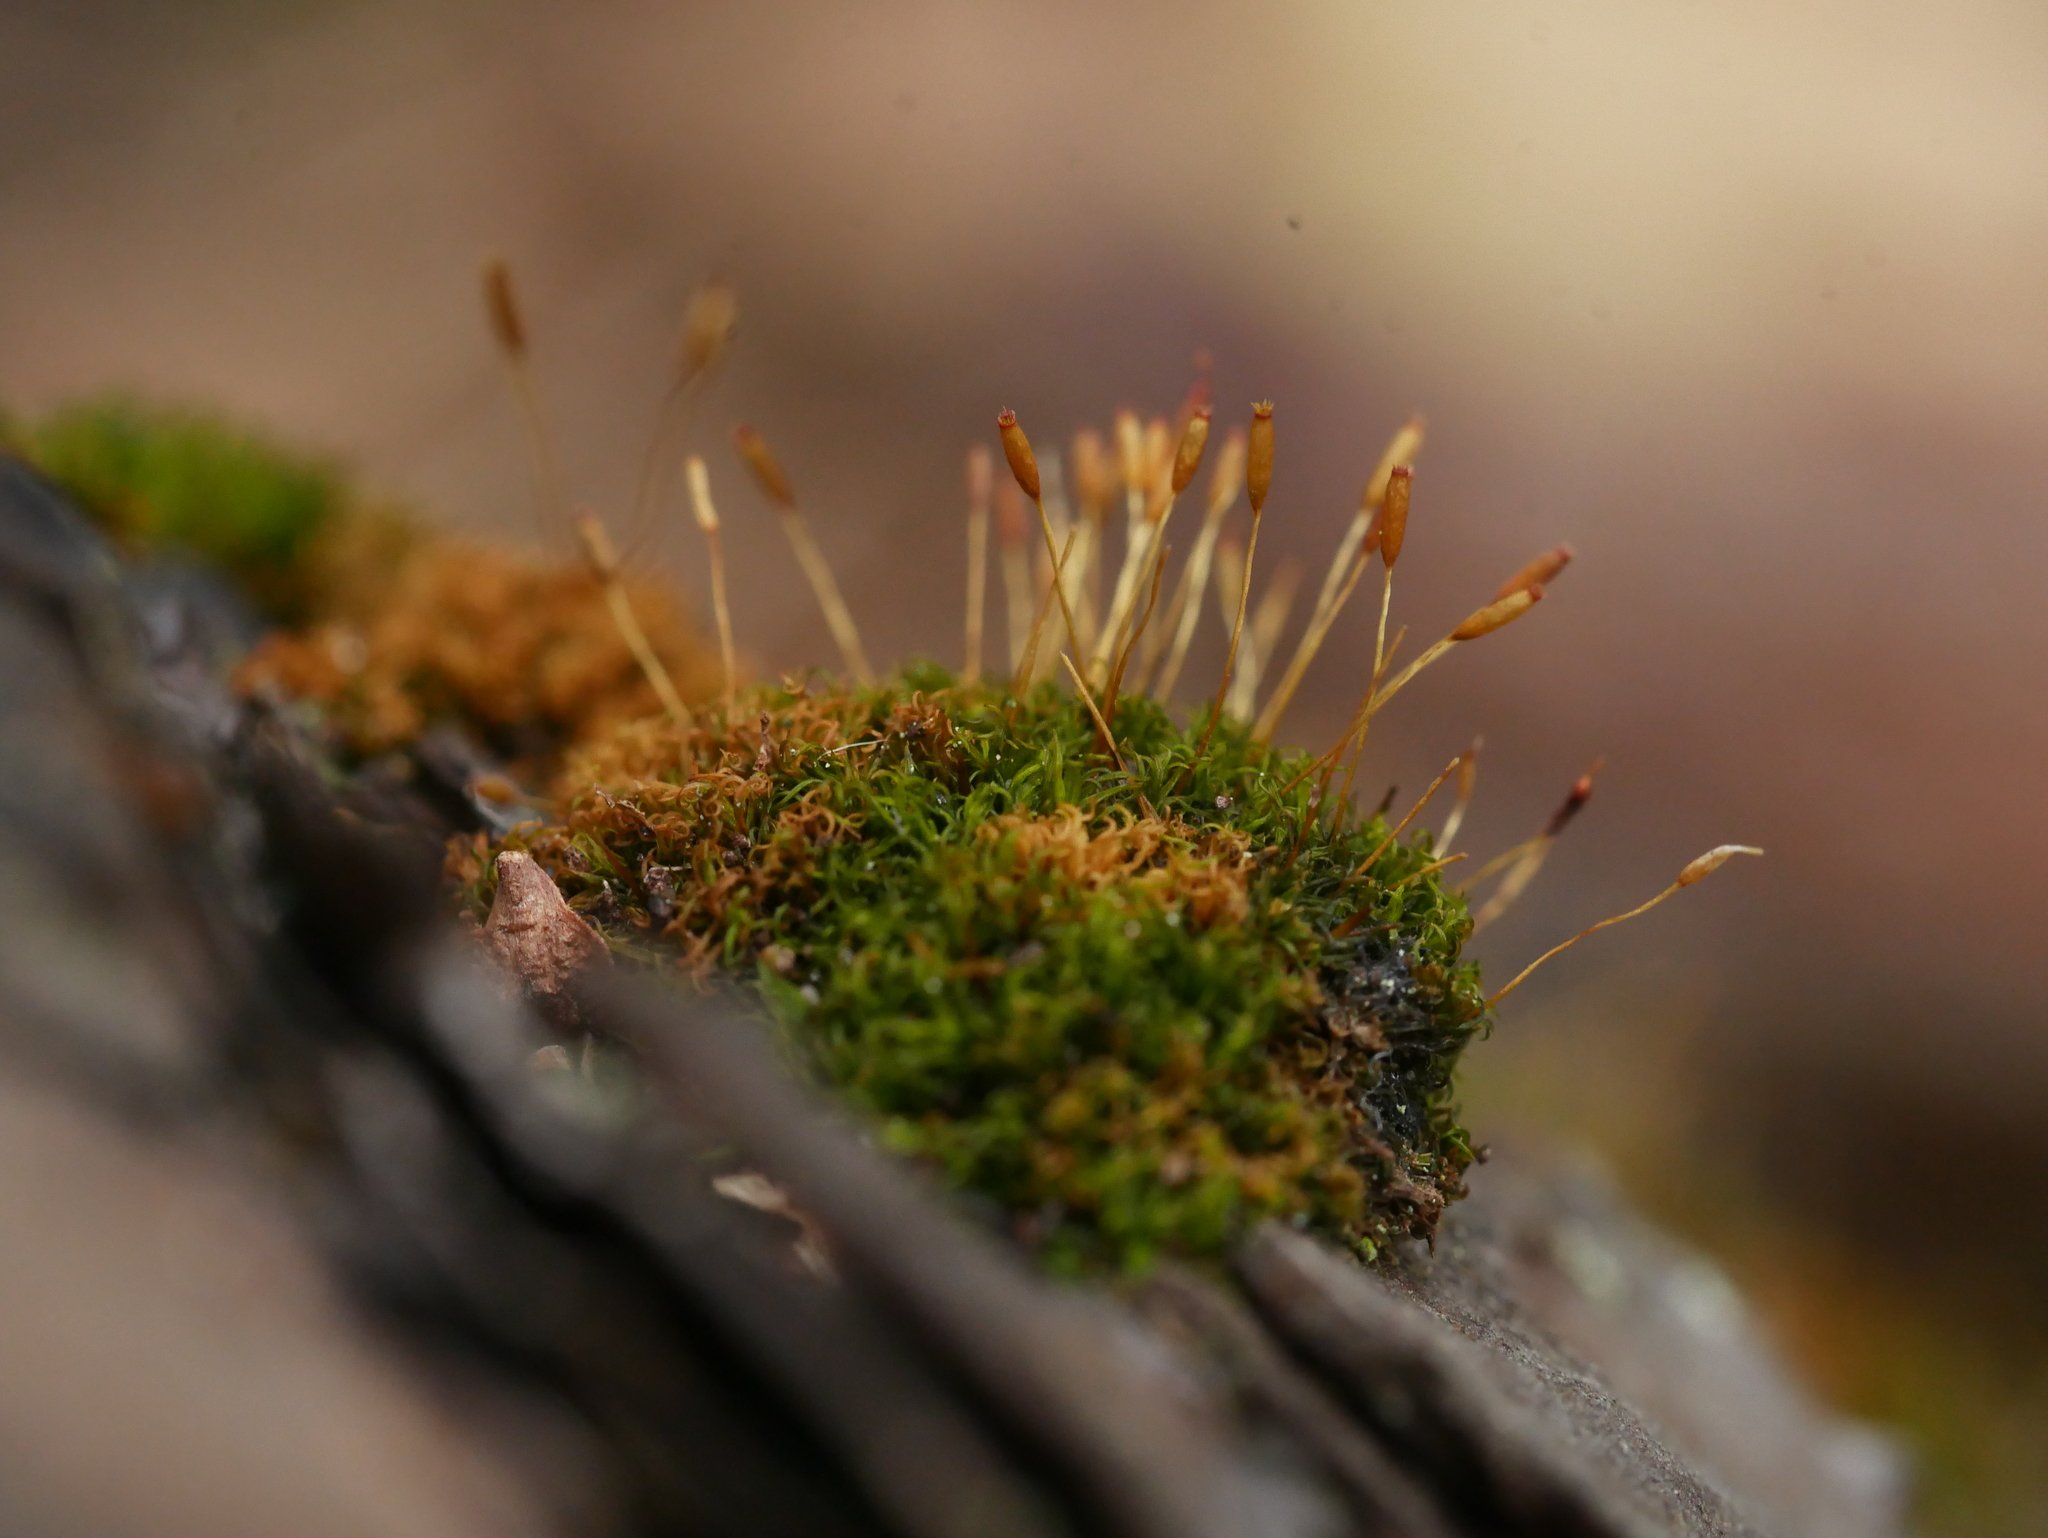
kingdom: Plantae
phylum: Bryophyta
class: Bryopsida
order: Dicranales
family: Rhabdoweisiaceae
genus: Dicranoweisia
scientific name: Dicranoweisia cirrata
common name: Common pincushion
